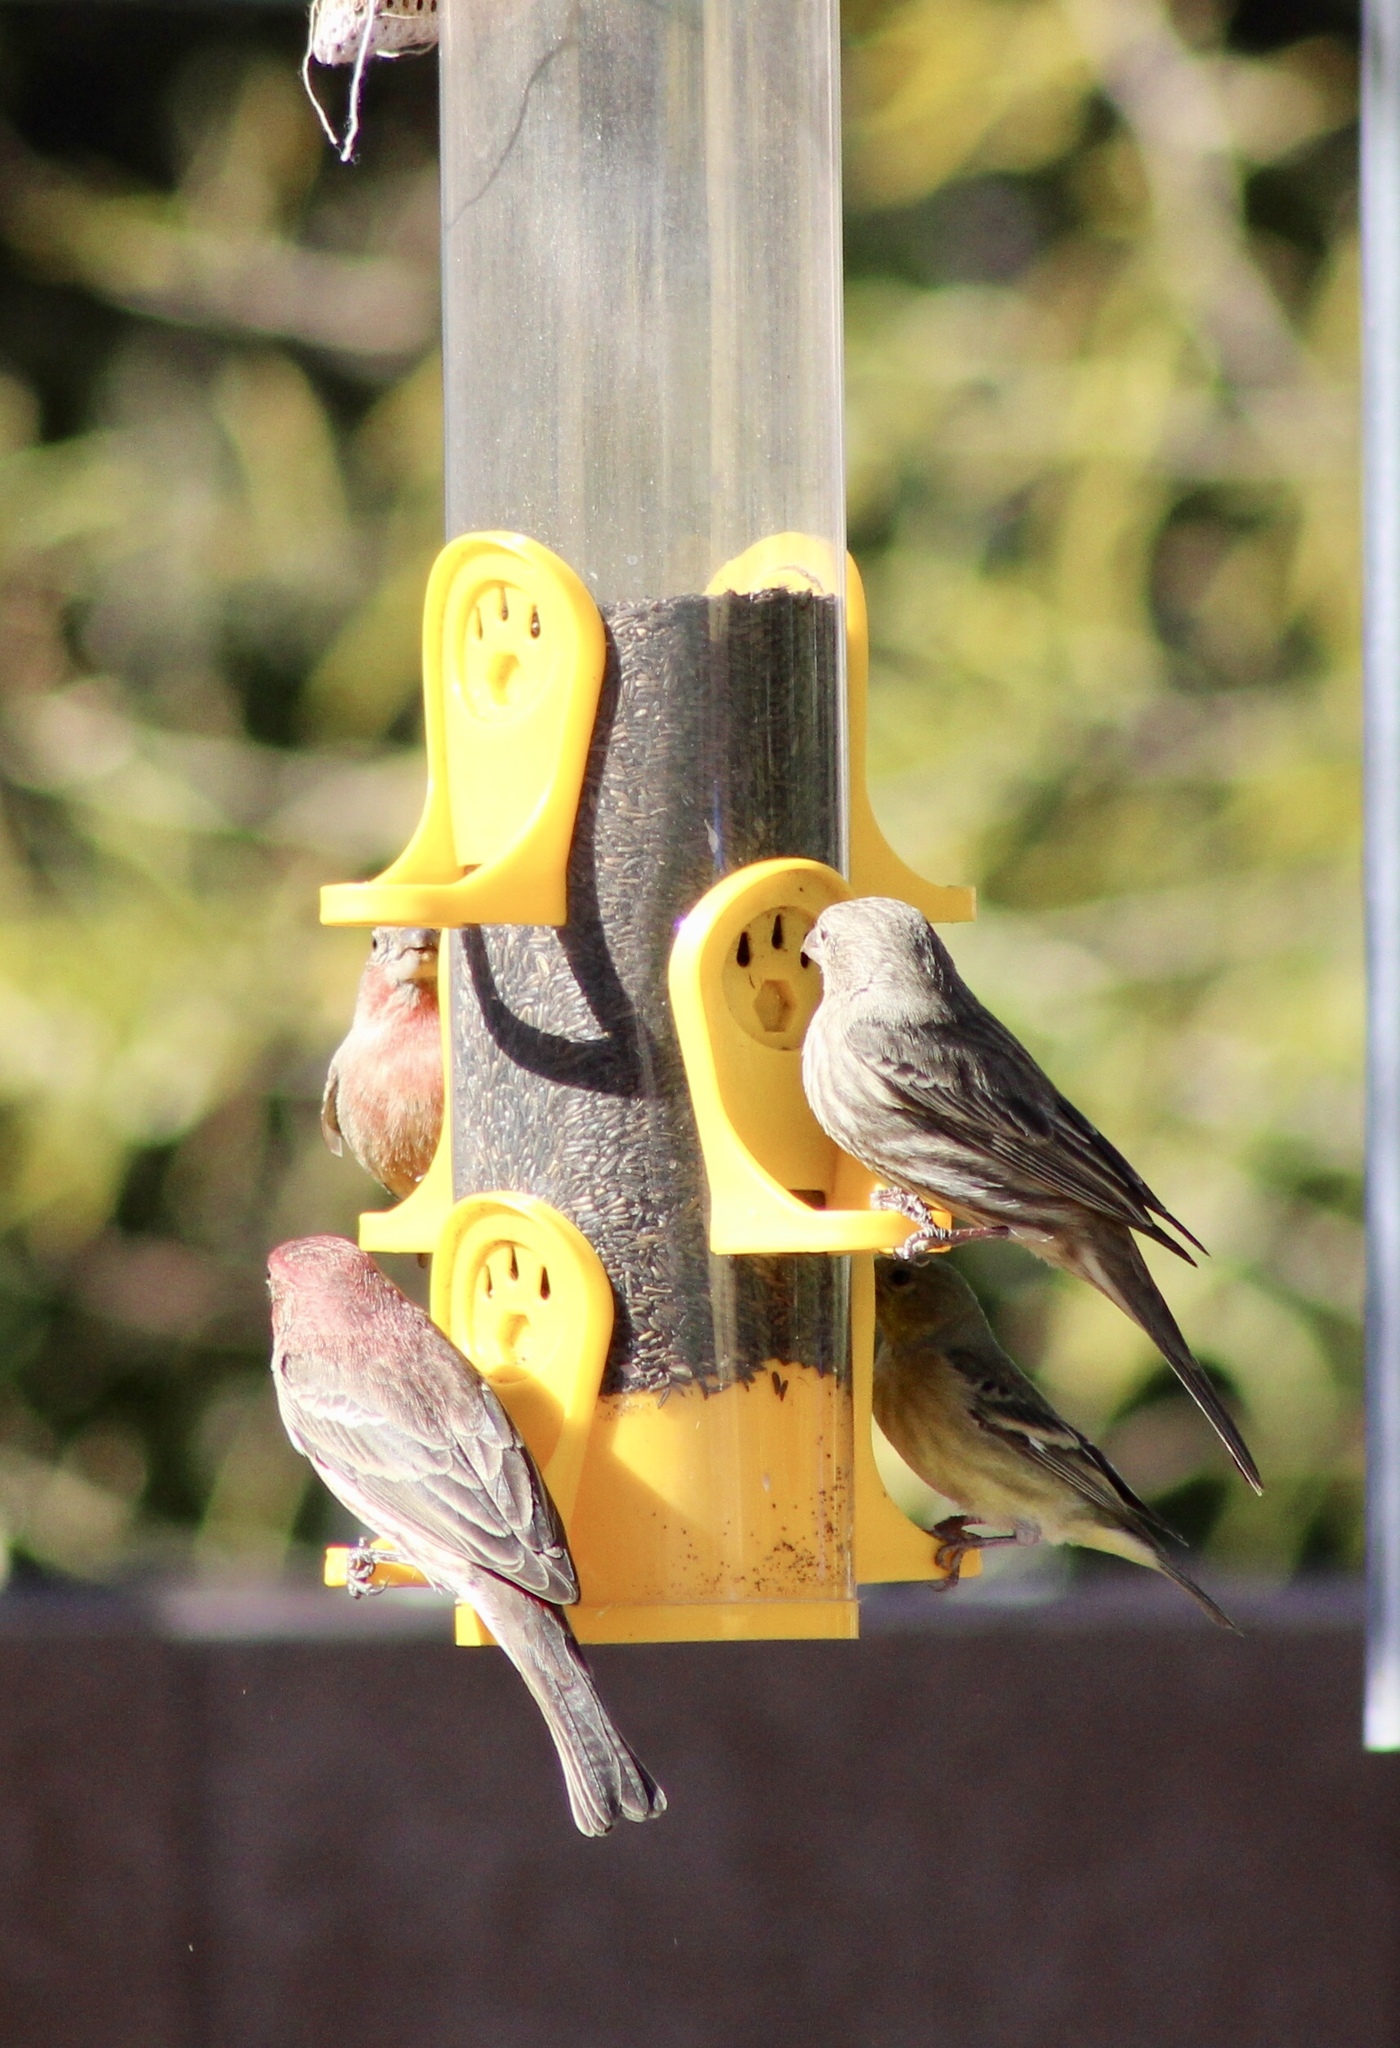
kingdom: Animalia
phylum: Chordata
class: Aves
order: Passeriformes
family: Fringillidae
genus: Haemorhous
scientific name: Haemorhous mexicanus
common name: House finch
